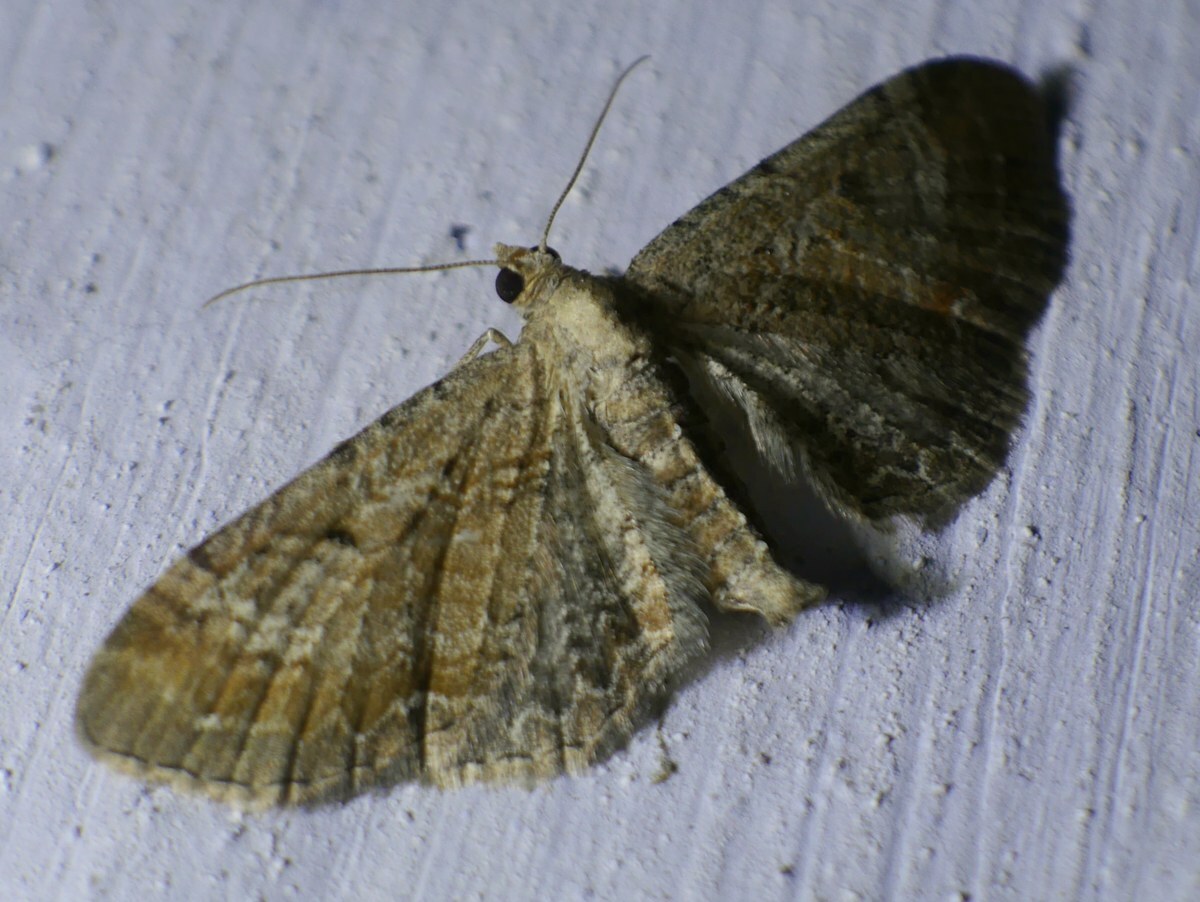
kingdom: Animalia
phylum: Arthropoda
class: Insecta
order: Lepidoptera
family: Geometridae
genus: Eupithecia
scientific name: Eupithecia simpliciata
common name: Plain pug
